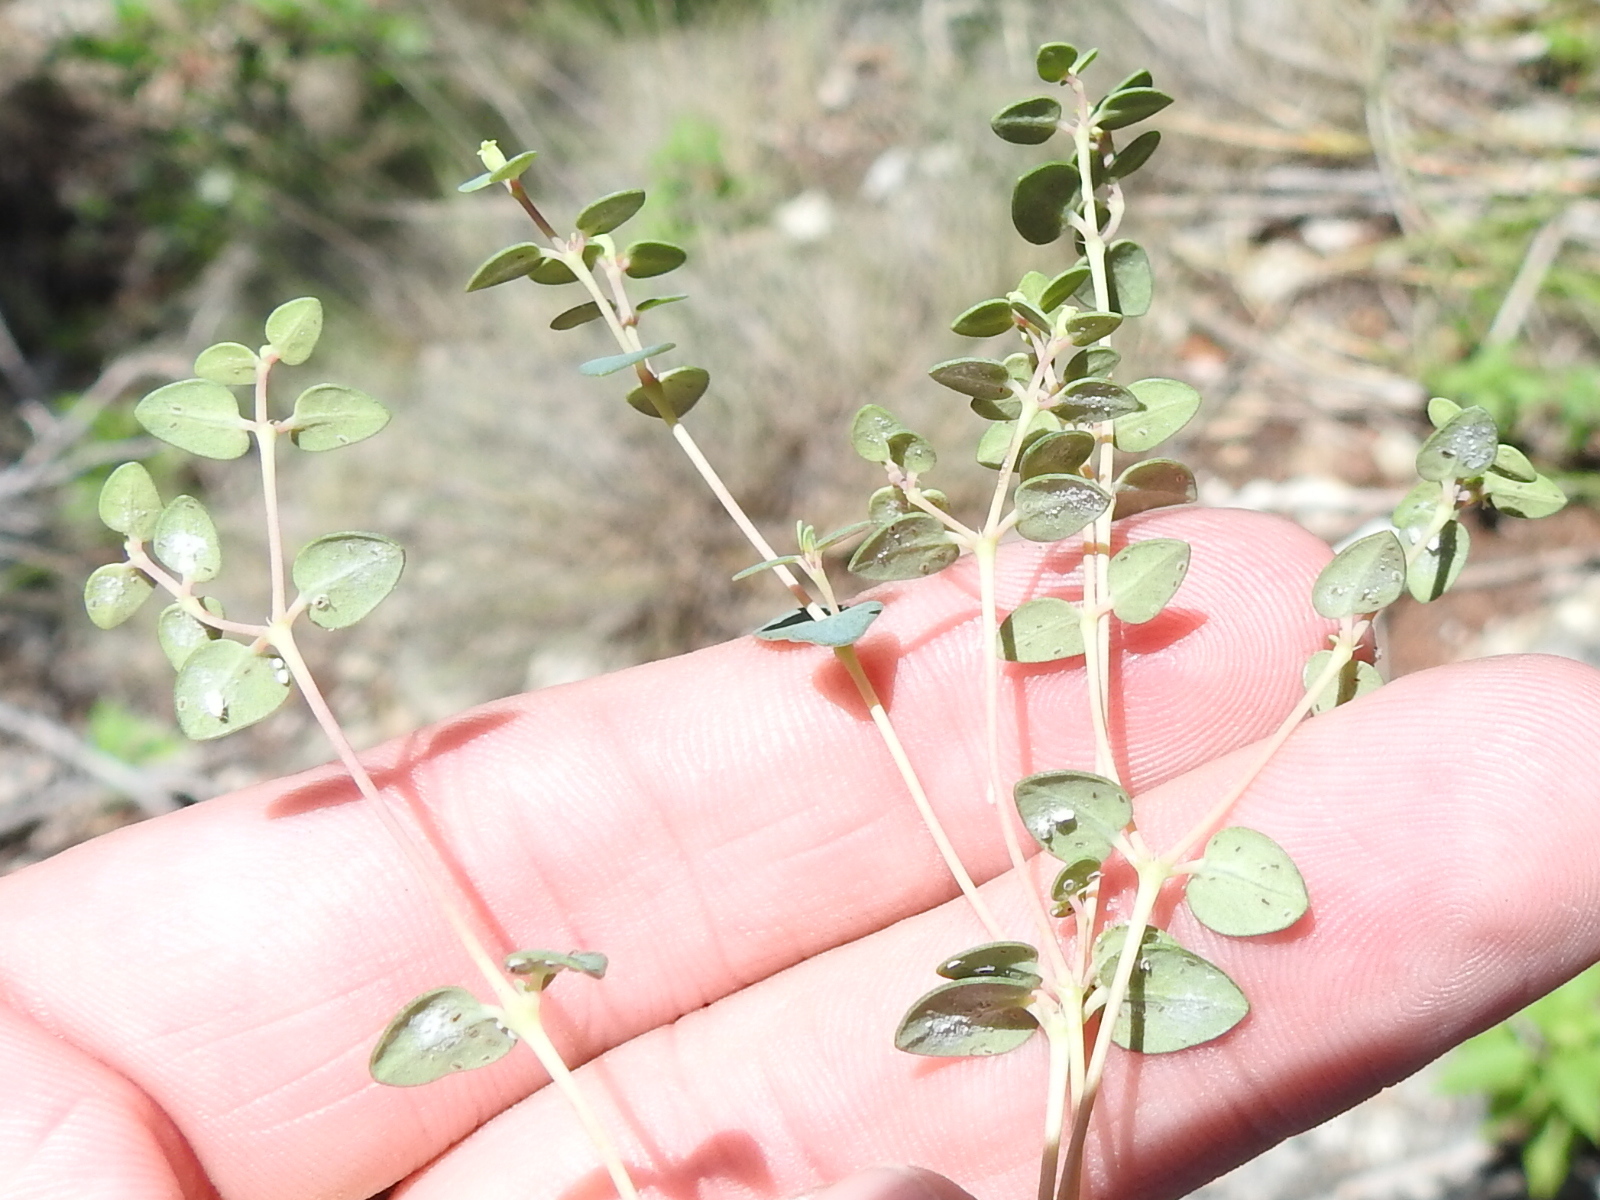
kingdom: Plantae
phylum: Tracheophyta
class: Magnoliopsida
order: Malpighiales
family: Euphorbiaceae
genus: Euphorbia
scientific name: Euphorbia fendleri
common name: Fendler's euphorbia
